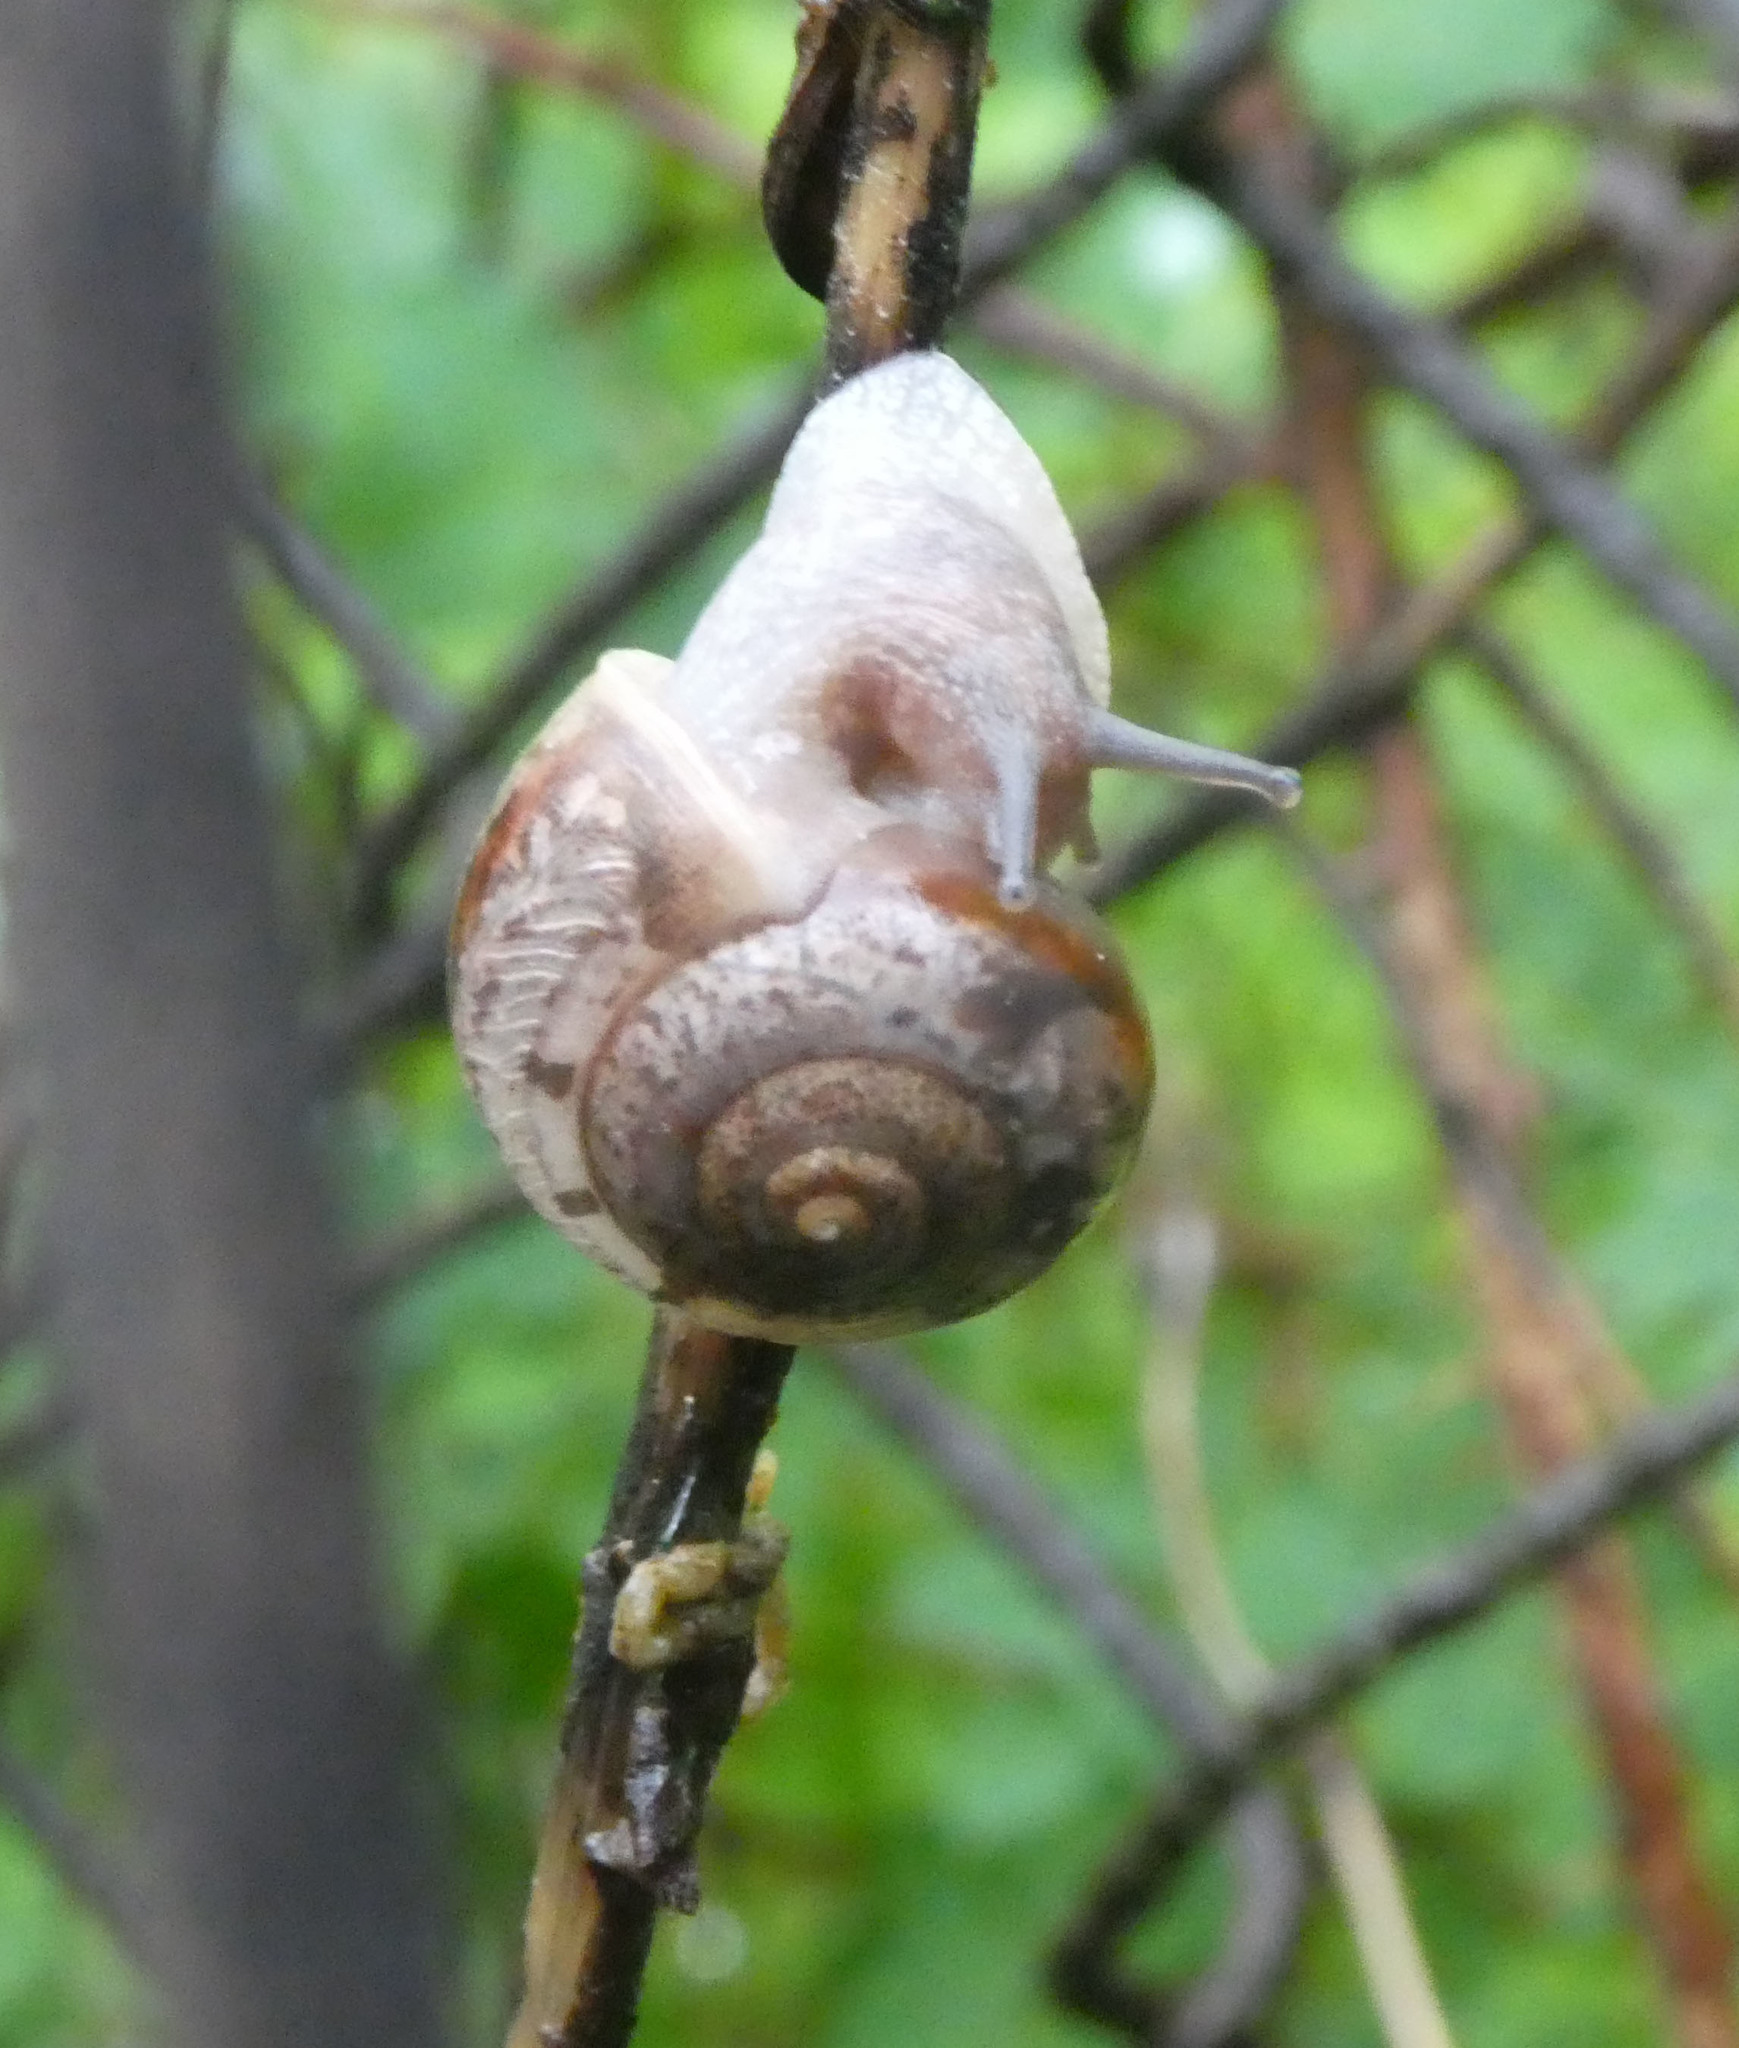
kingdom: Animalia
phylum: Mollusca
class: Gastropoda
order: Stylommatophora
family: Camaenidae
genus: Fruticicola
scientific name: Fruticicola fruticum
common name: Bush snail
